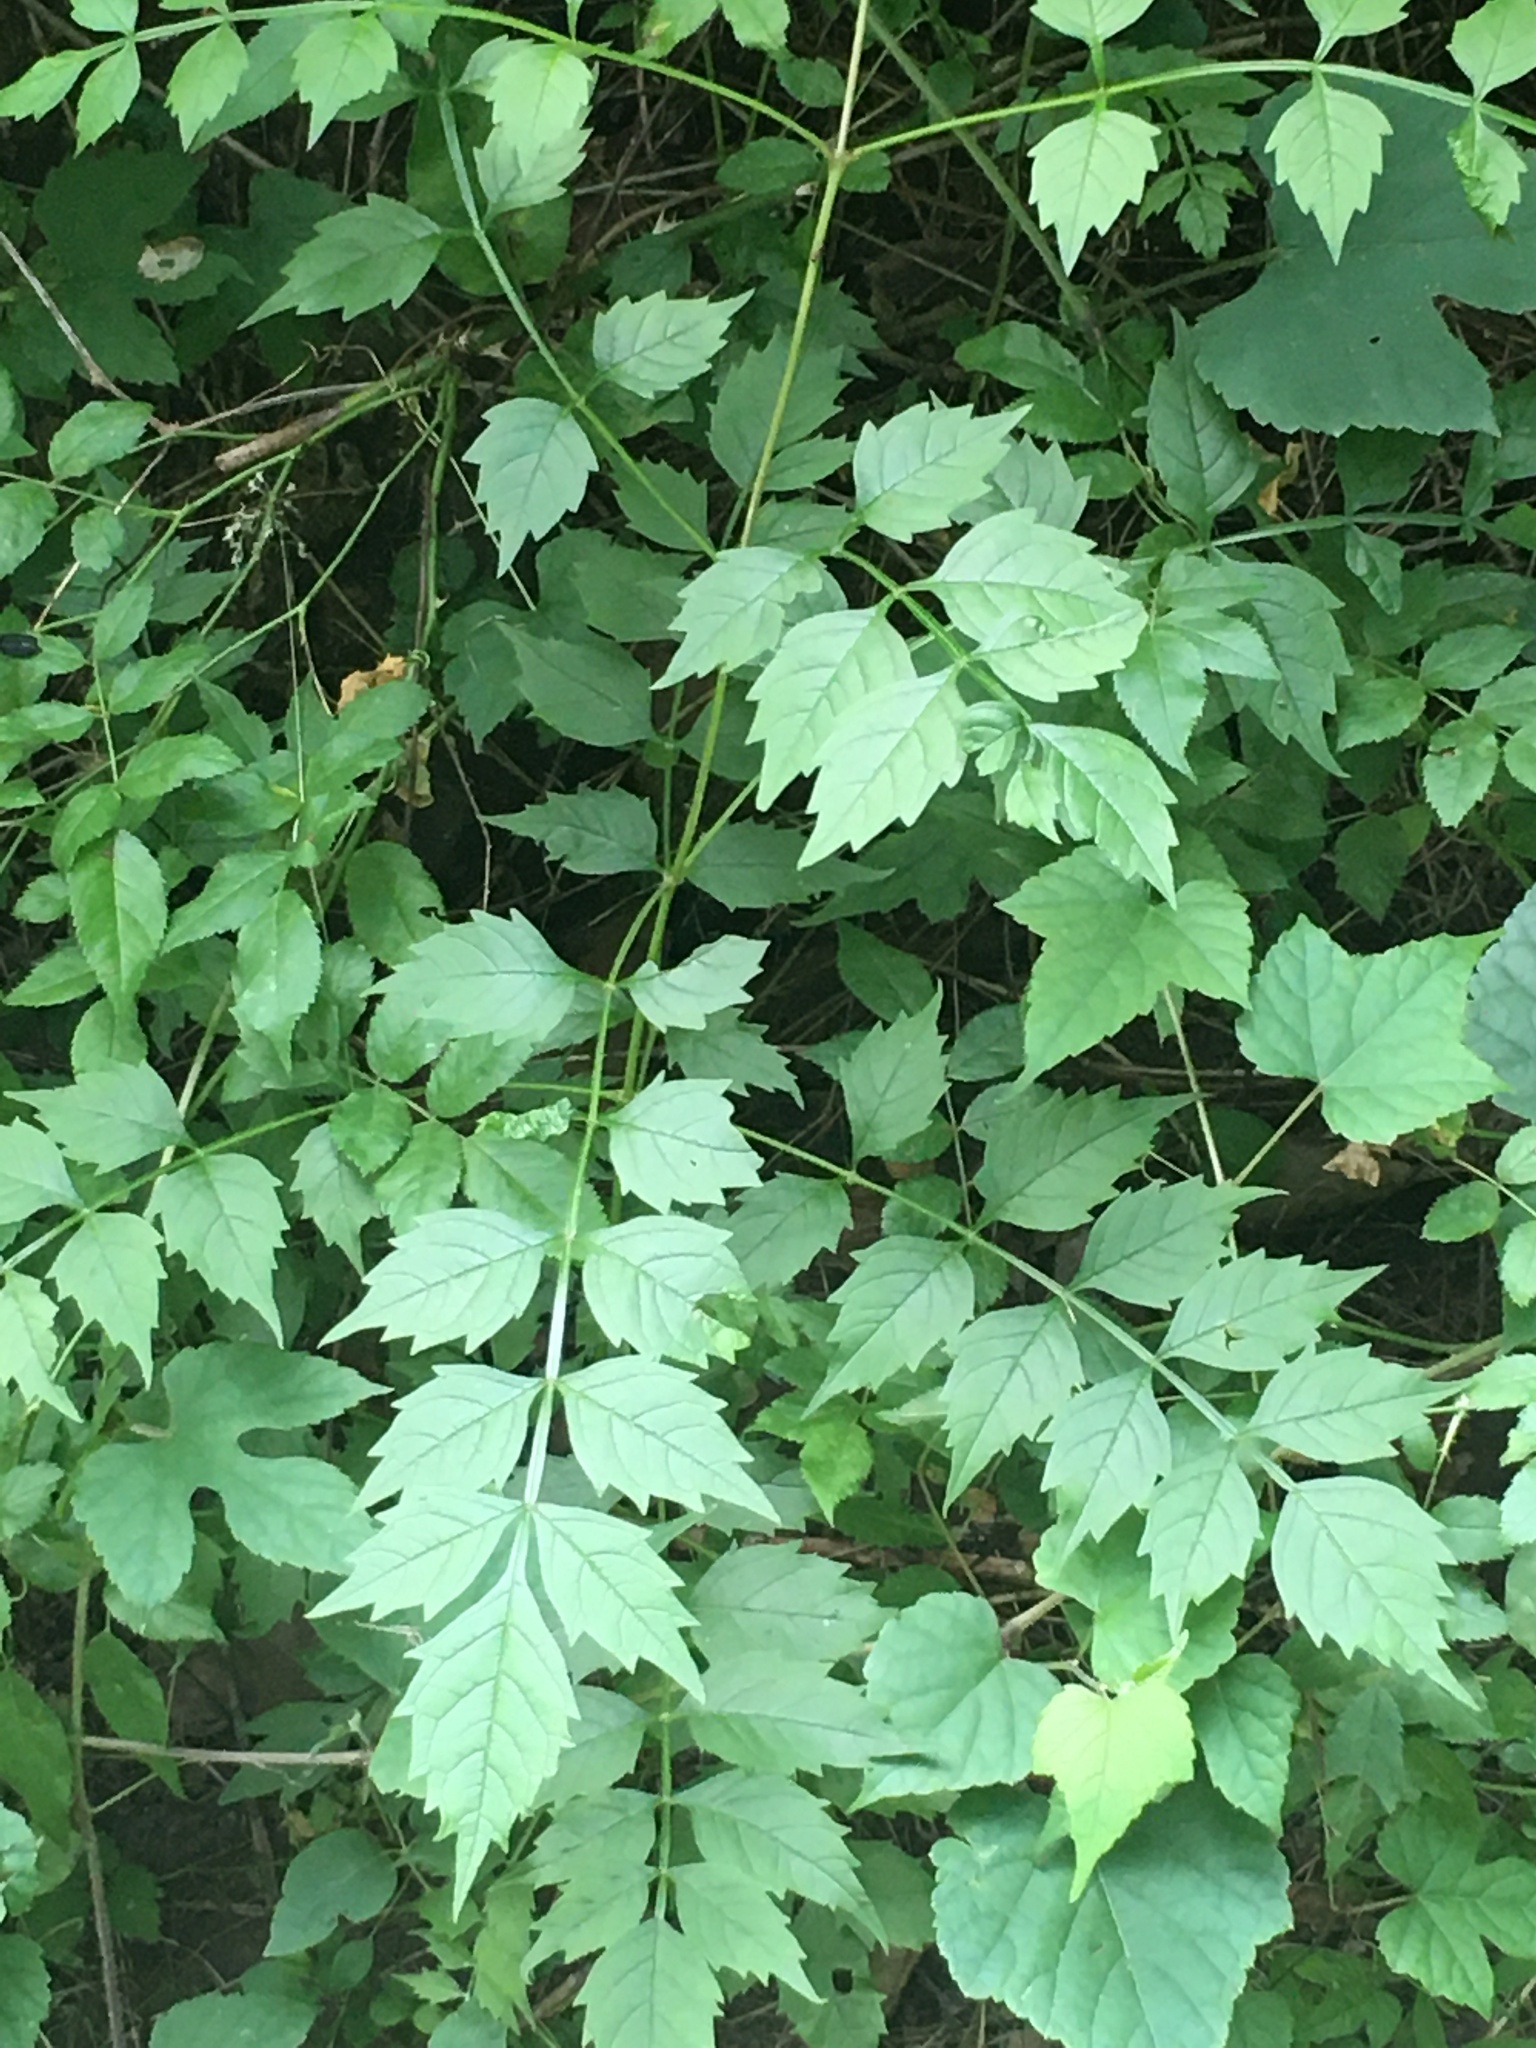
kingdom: Plantae
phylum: Tracheophyta
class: Magnoliopsida
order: Lamiales
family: Bignoniaceae
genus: Campsis
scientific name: Campsis radicans
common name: Trumpet-creeper
